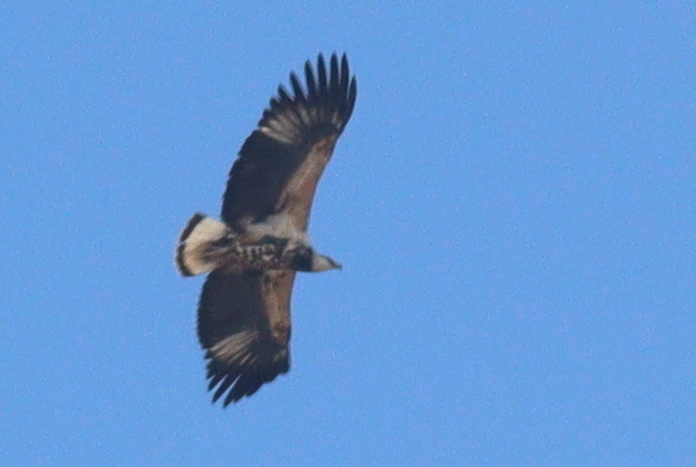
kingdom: Animalia
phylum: Chordata
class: Aves
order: Accipitriformes
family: Accipitridae
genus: Haliaeetus
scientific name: Haliaeetus vocifer
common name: African fish eagle
